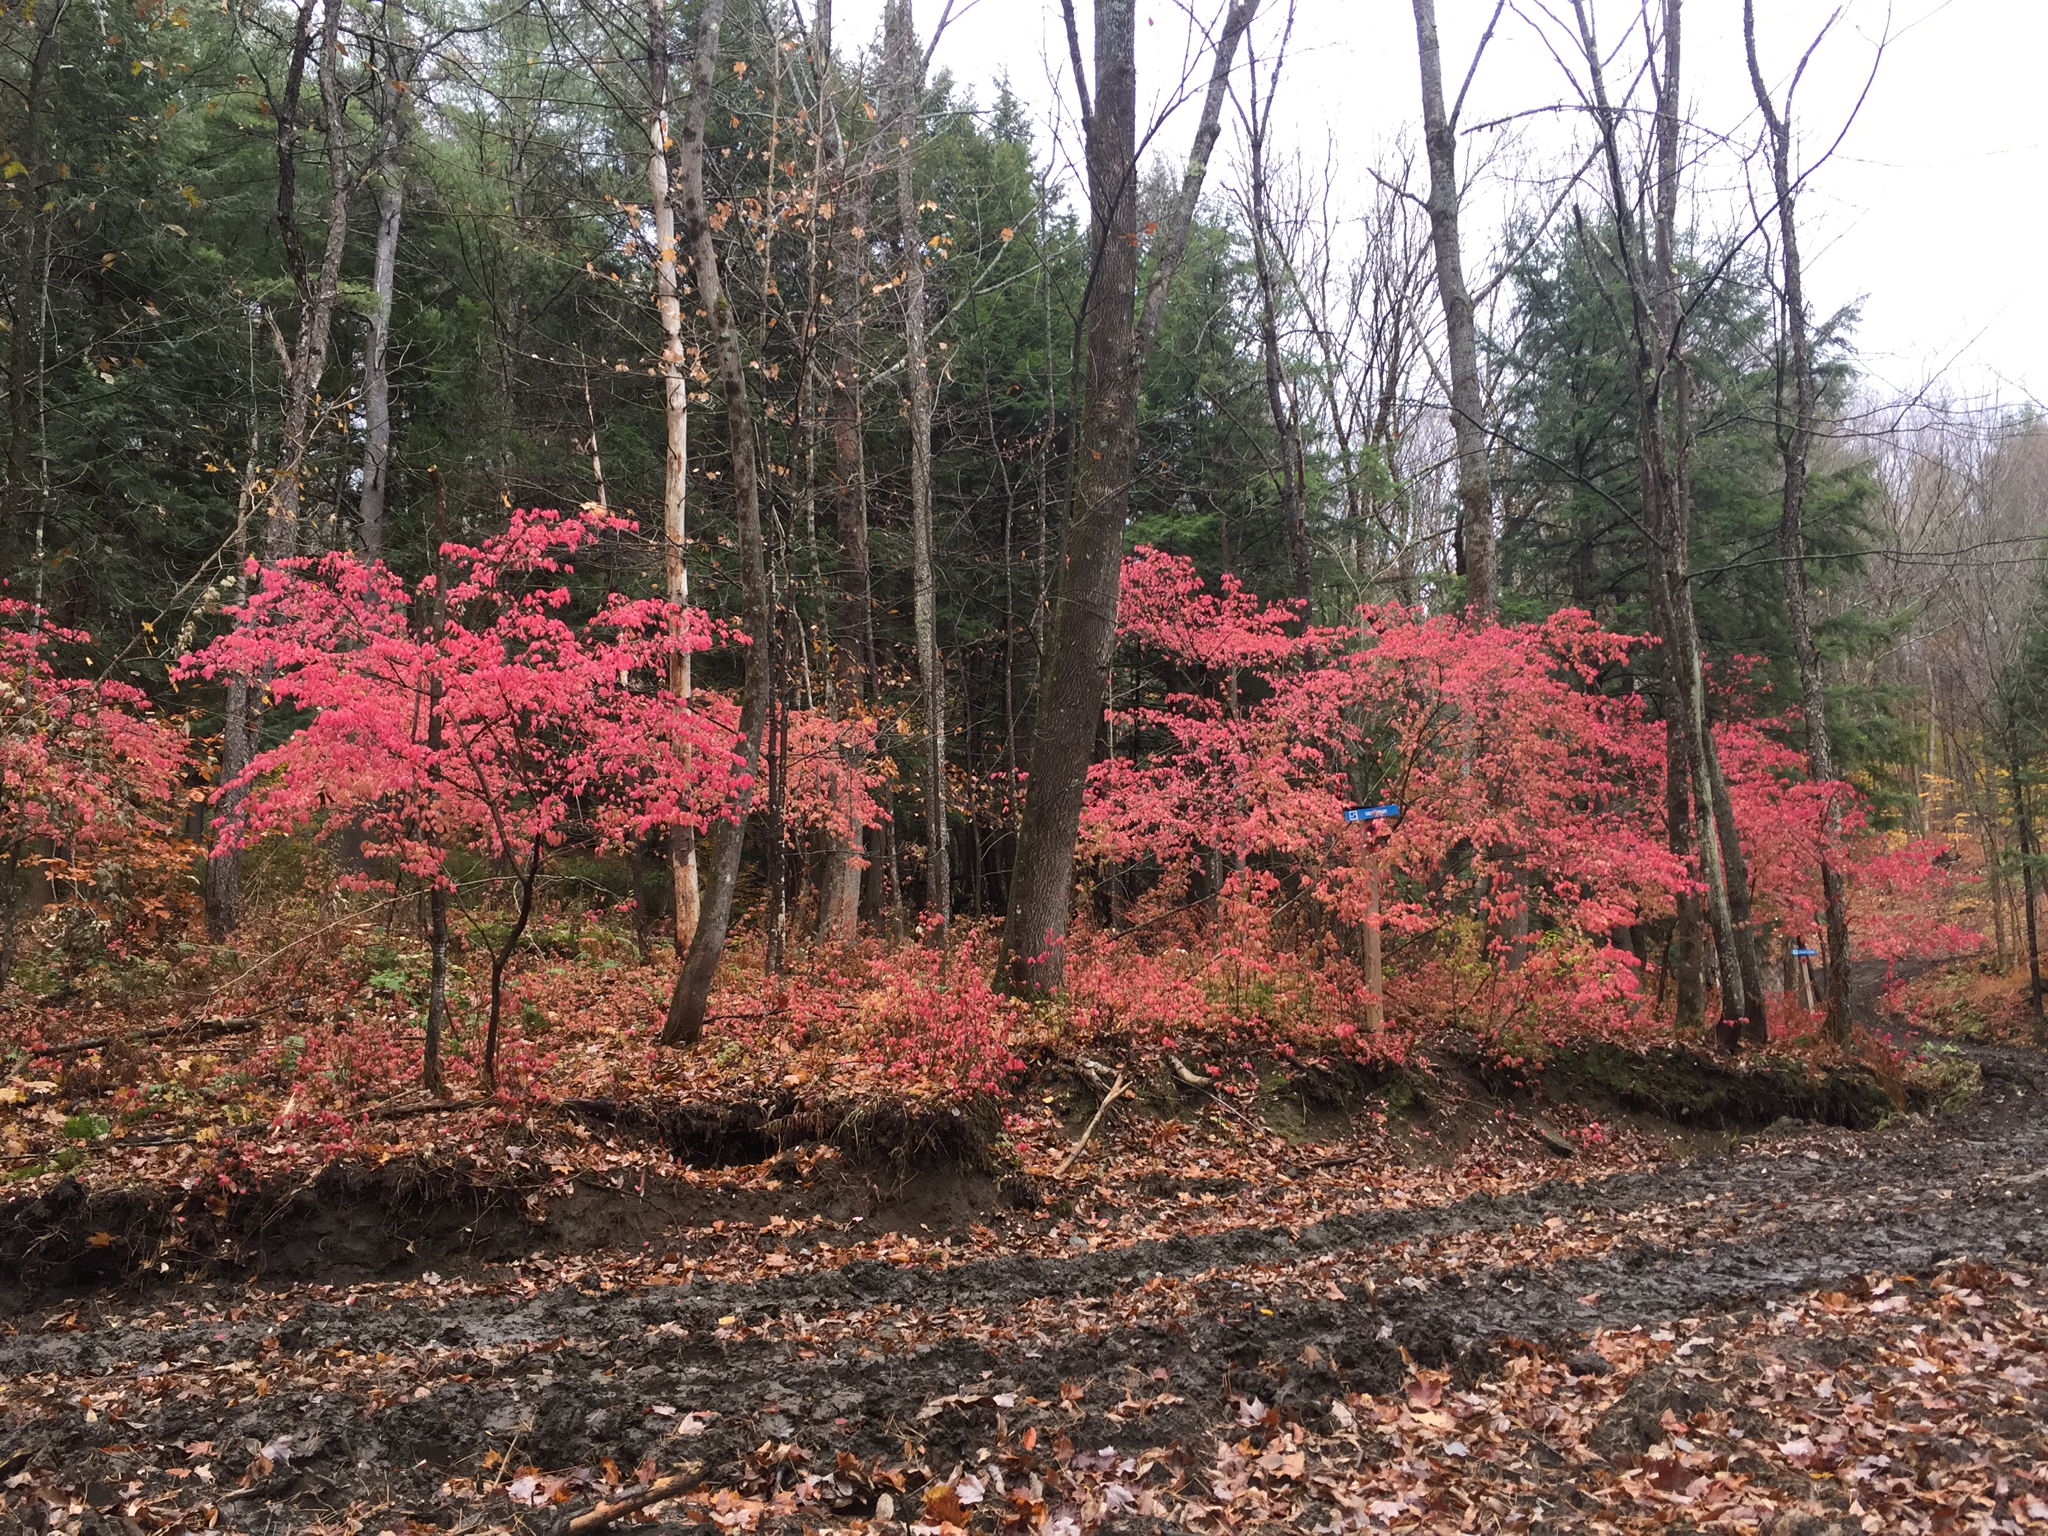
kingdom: Plantae
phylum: Tracheophyta
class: Magnoliopsida
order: Celastrales
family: Celastraceae
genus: Euonymus
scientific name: Euonymus alatus
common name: Winged euonymus
